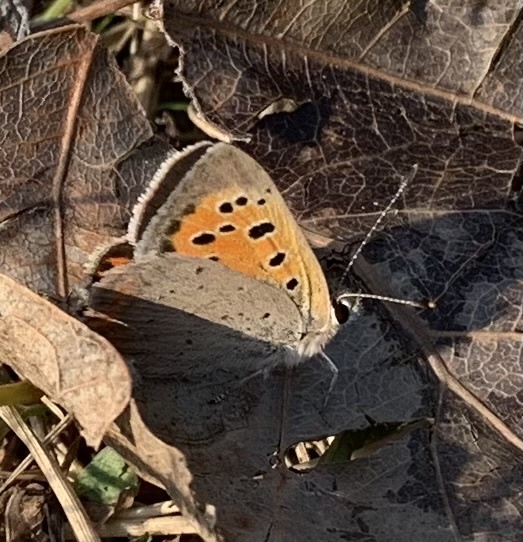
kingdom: Animalia
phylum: Arthropoda
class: Insecta
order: Lepidoptera
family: Lycaenidae
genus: Lycaena
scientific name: Lycaena phlaeas
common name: Small copper
